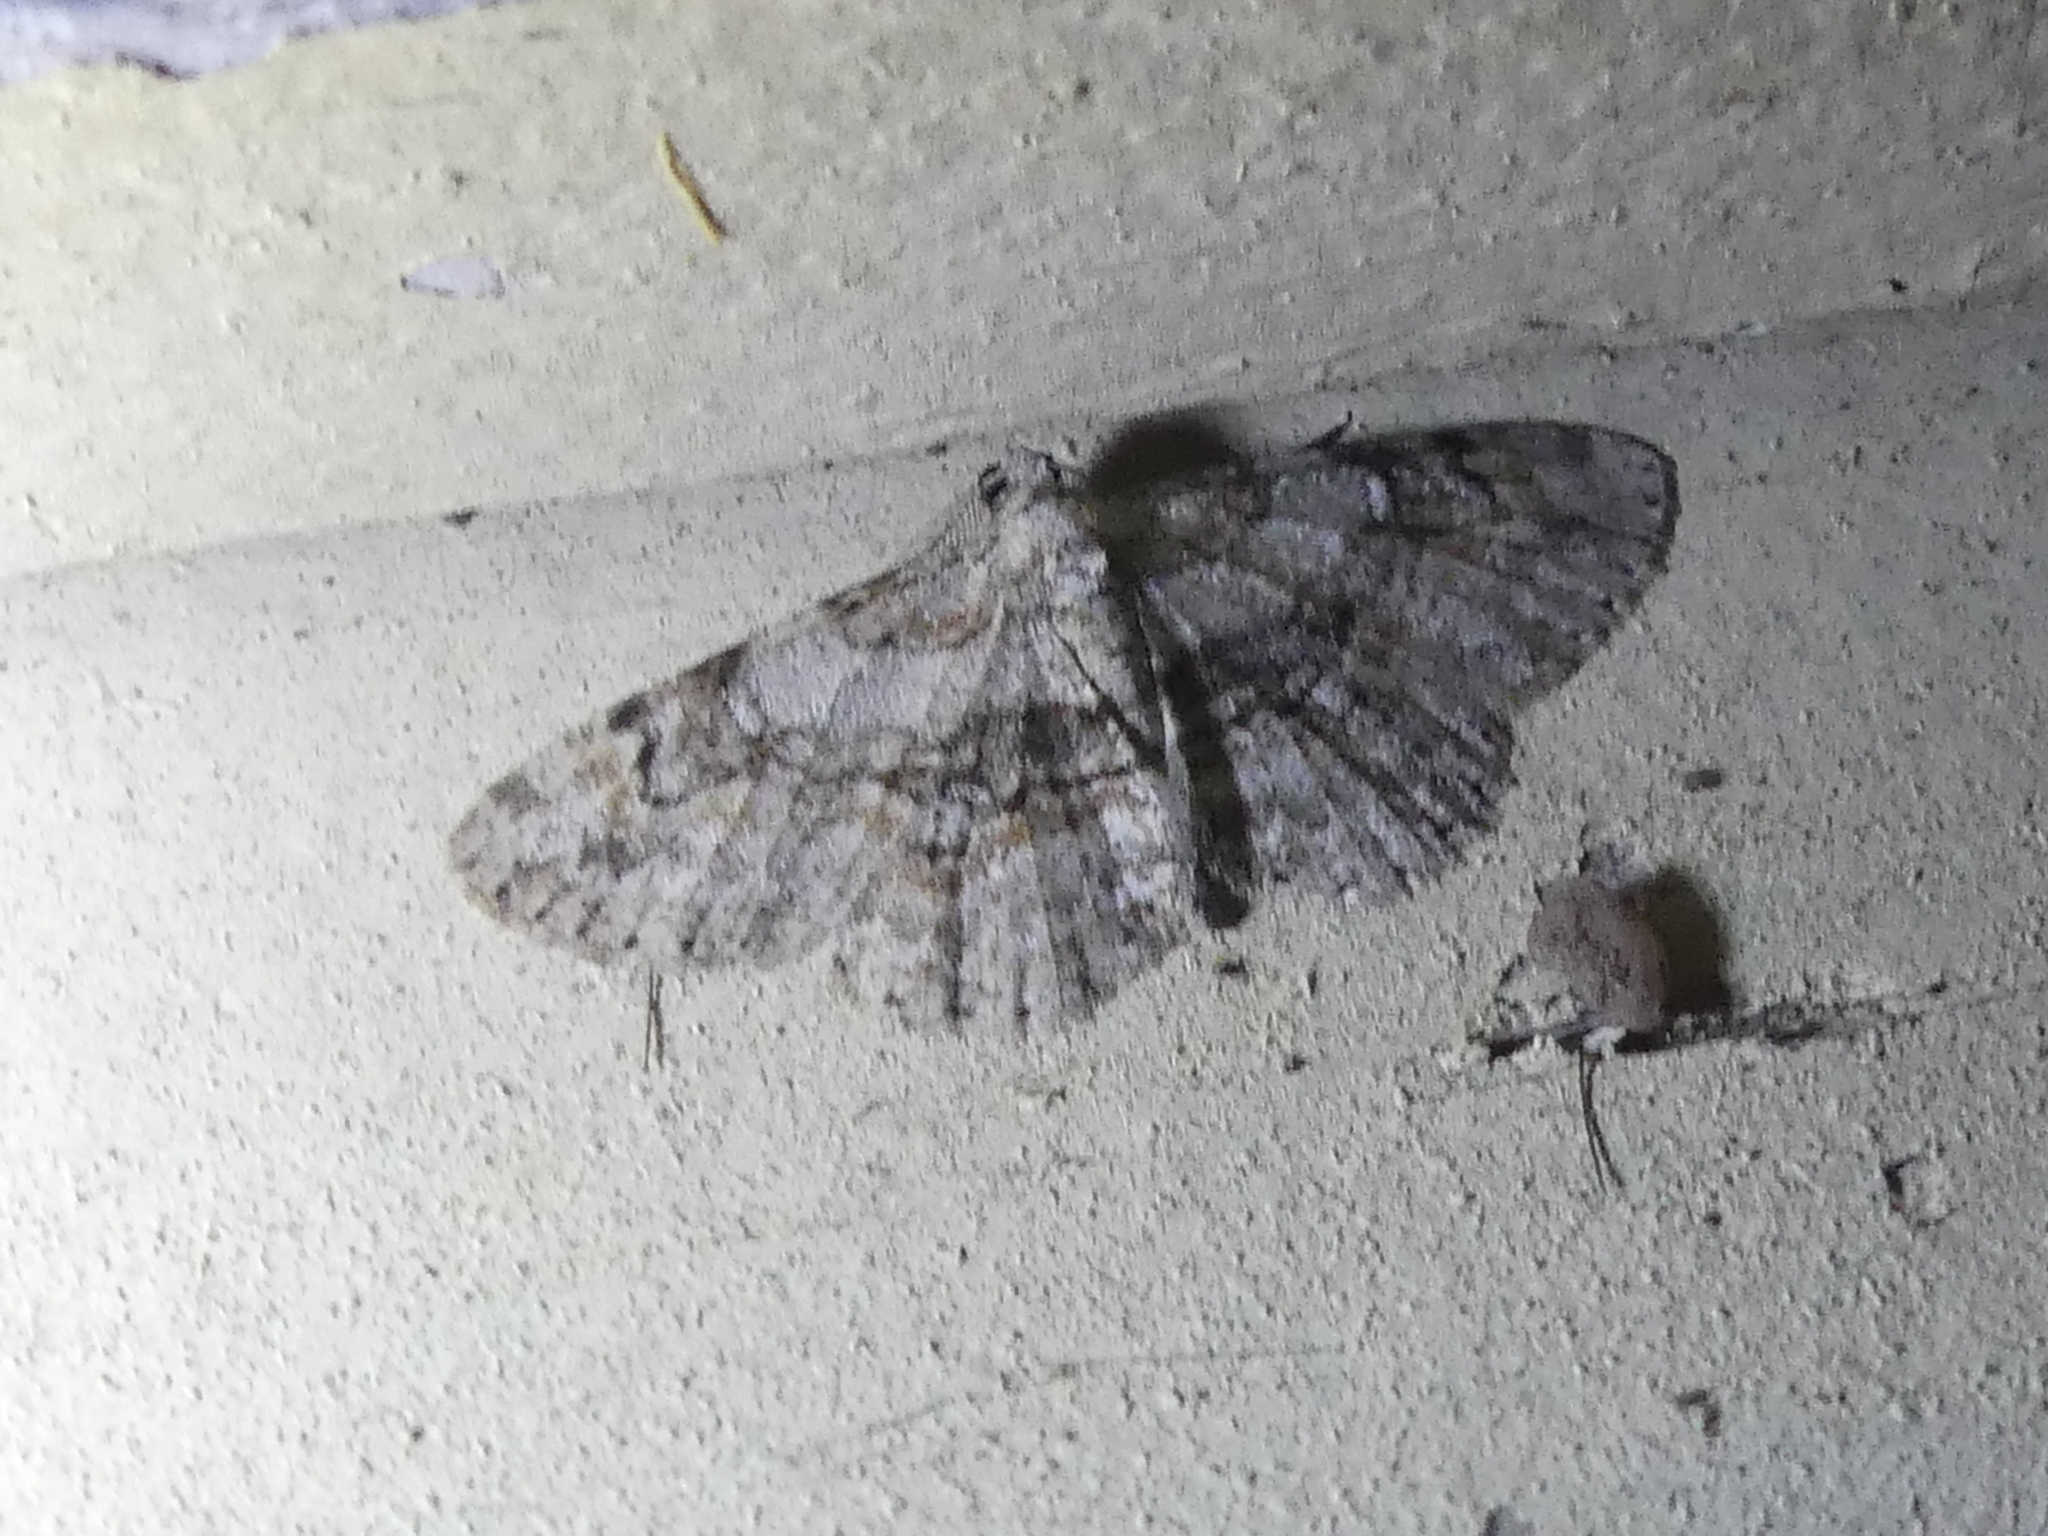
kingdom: Animalia
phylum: Arthropoda
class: Insecta
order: Lepidoptera
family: Geometridae
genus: Iridopsis
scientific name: Iridopsis ephyraria
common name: Pale-winged gray
